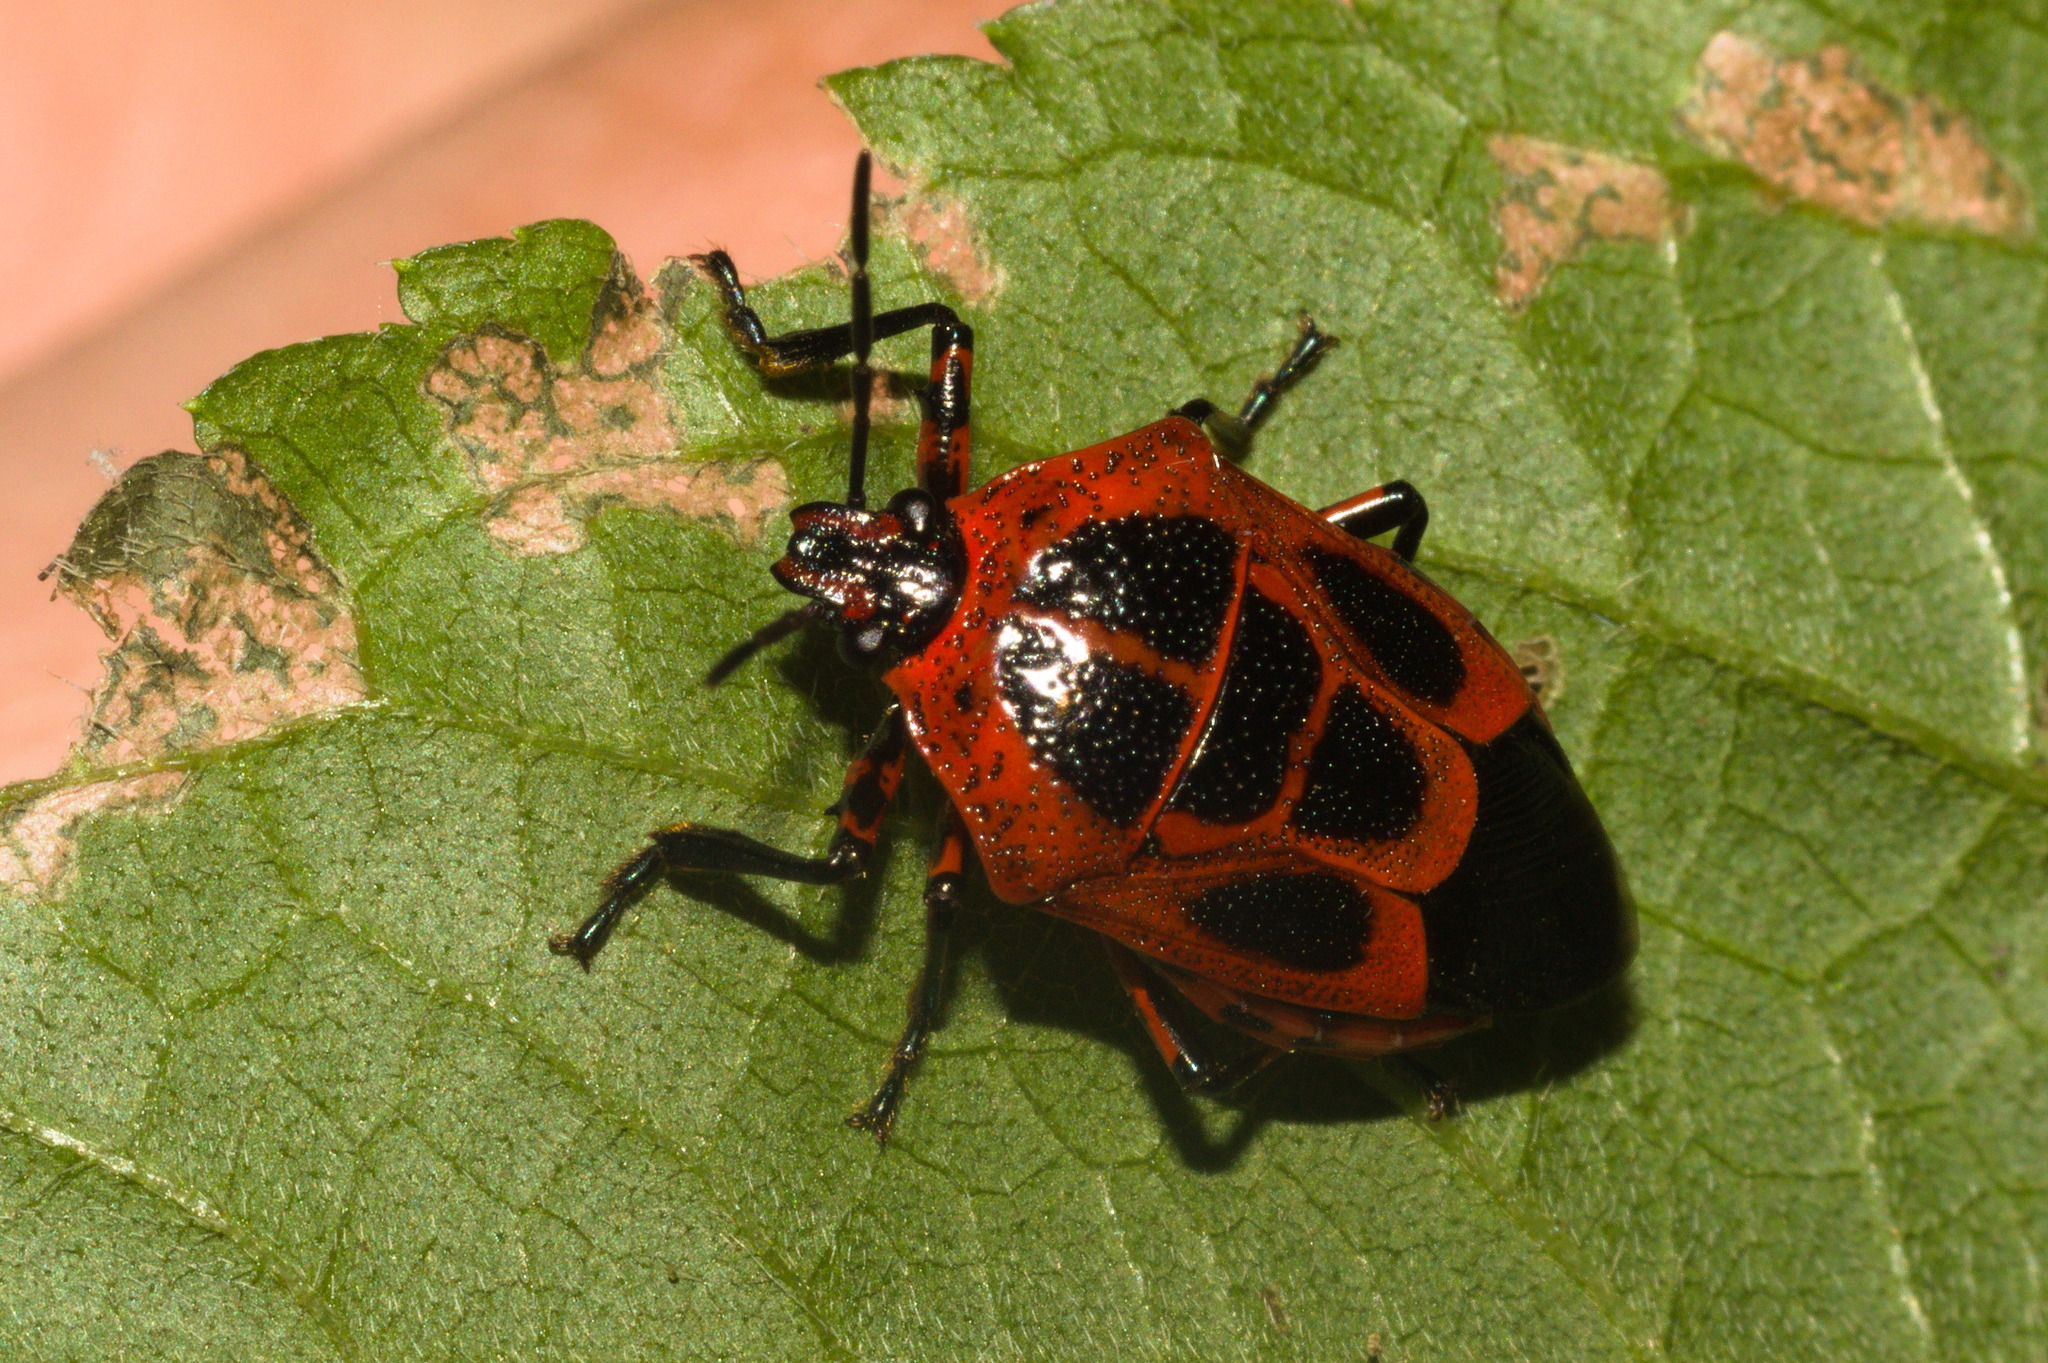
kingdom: Animalia
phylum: Arthropoda
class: Insecta
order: Hemiptera
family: Pentatomidae
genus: Oplomus
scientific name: Oplomus catena
